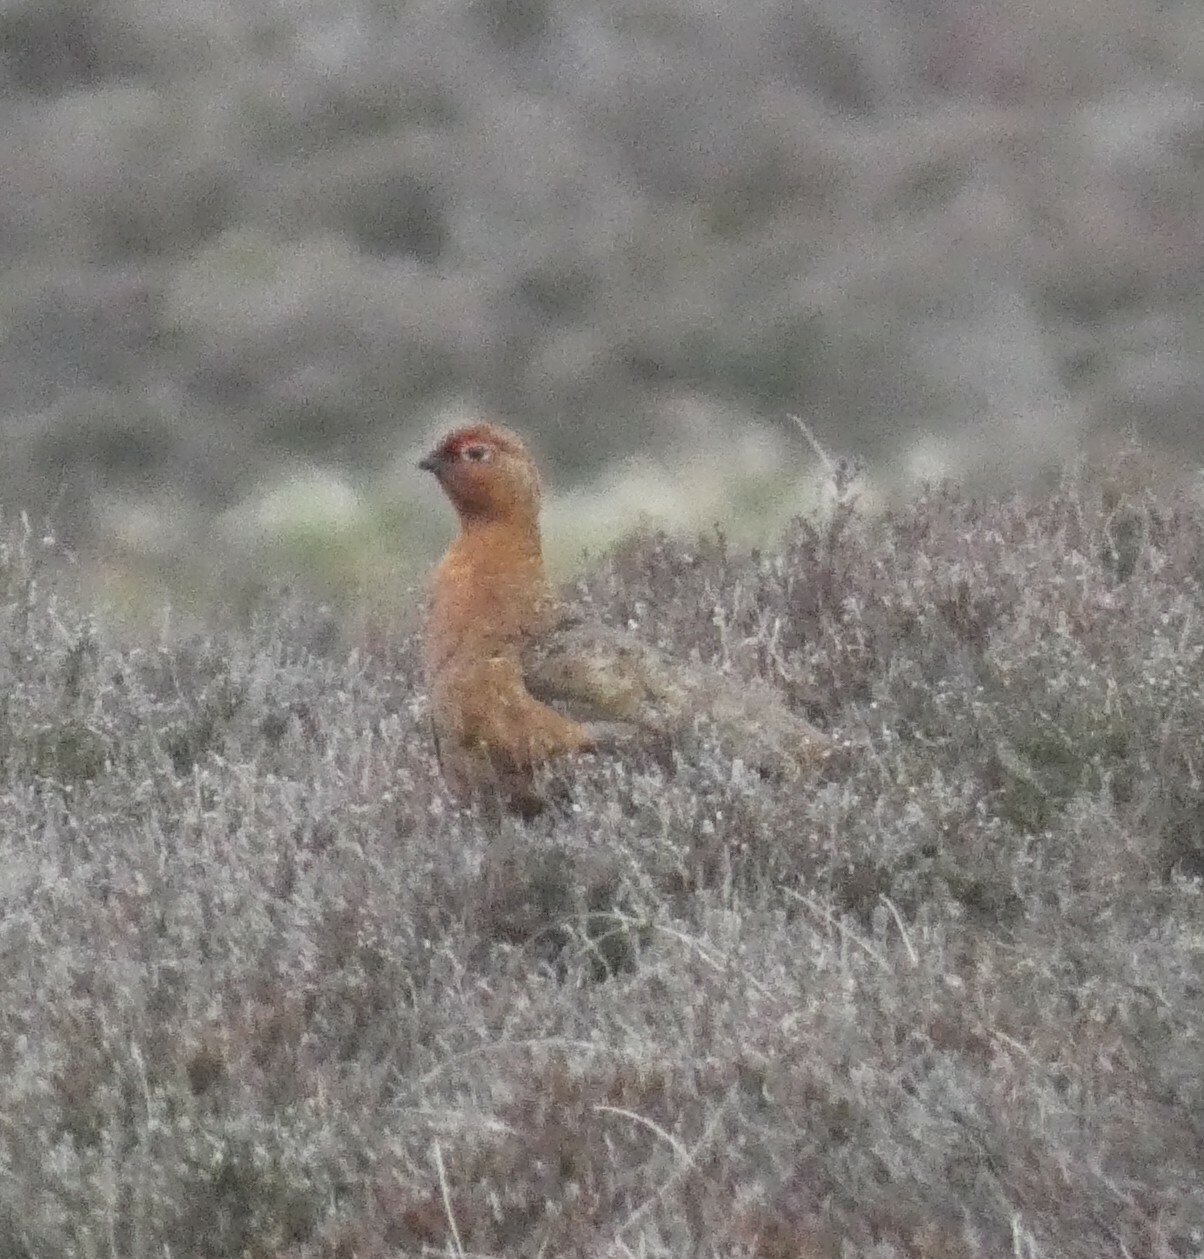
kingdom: Animalia
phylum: Chordata
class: Aves
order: Galliformes
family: Phasianidae
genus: Lagopus
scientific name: Lagopus lagopus
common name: Willow ptarmigan
